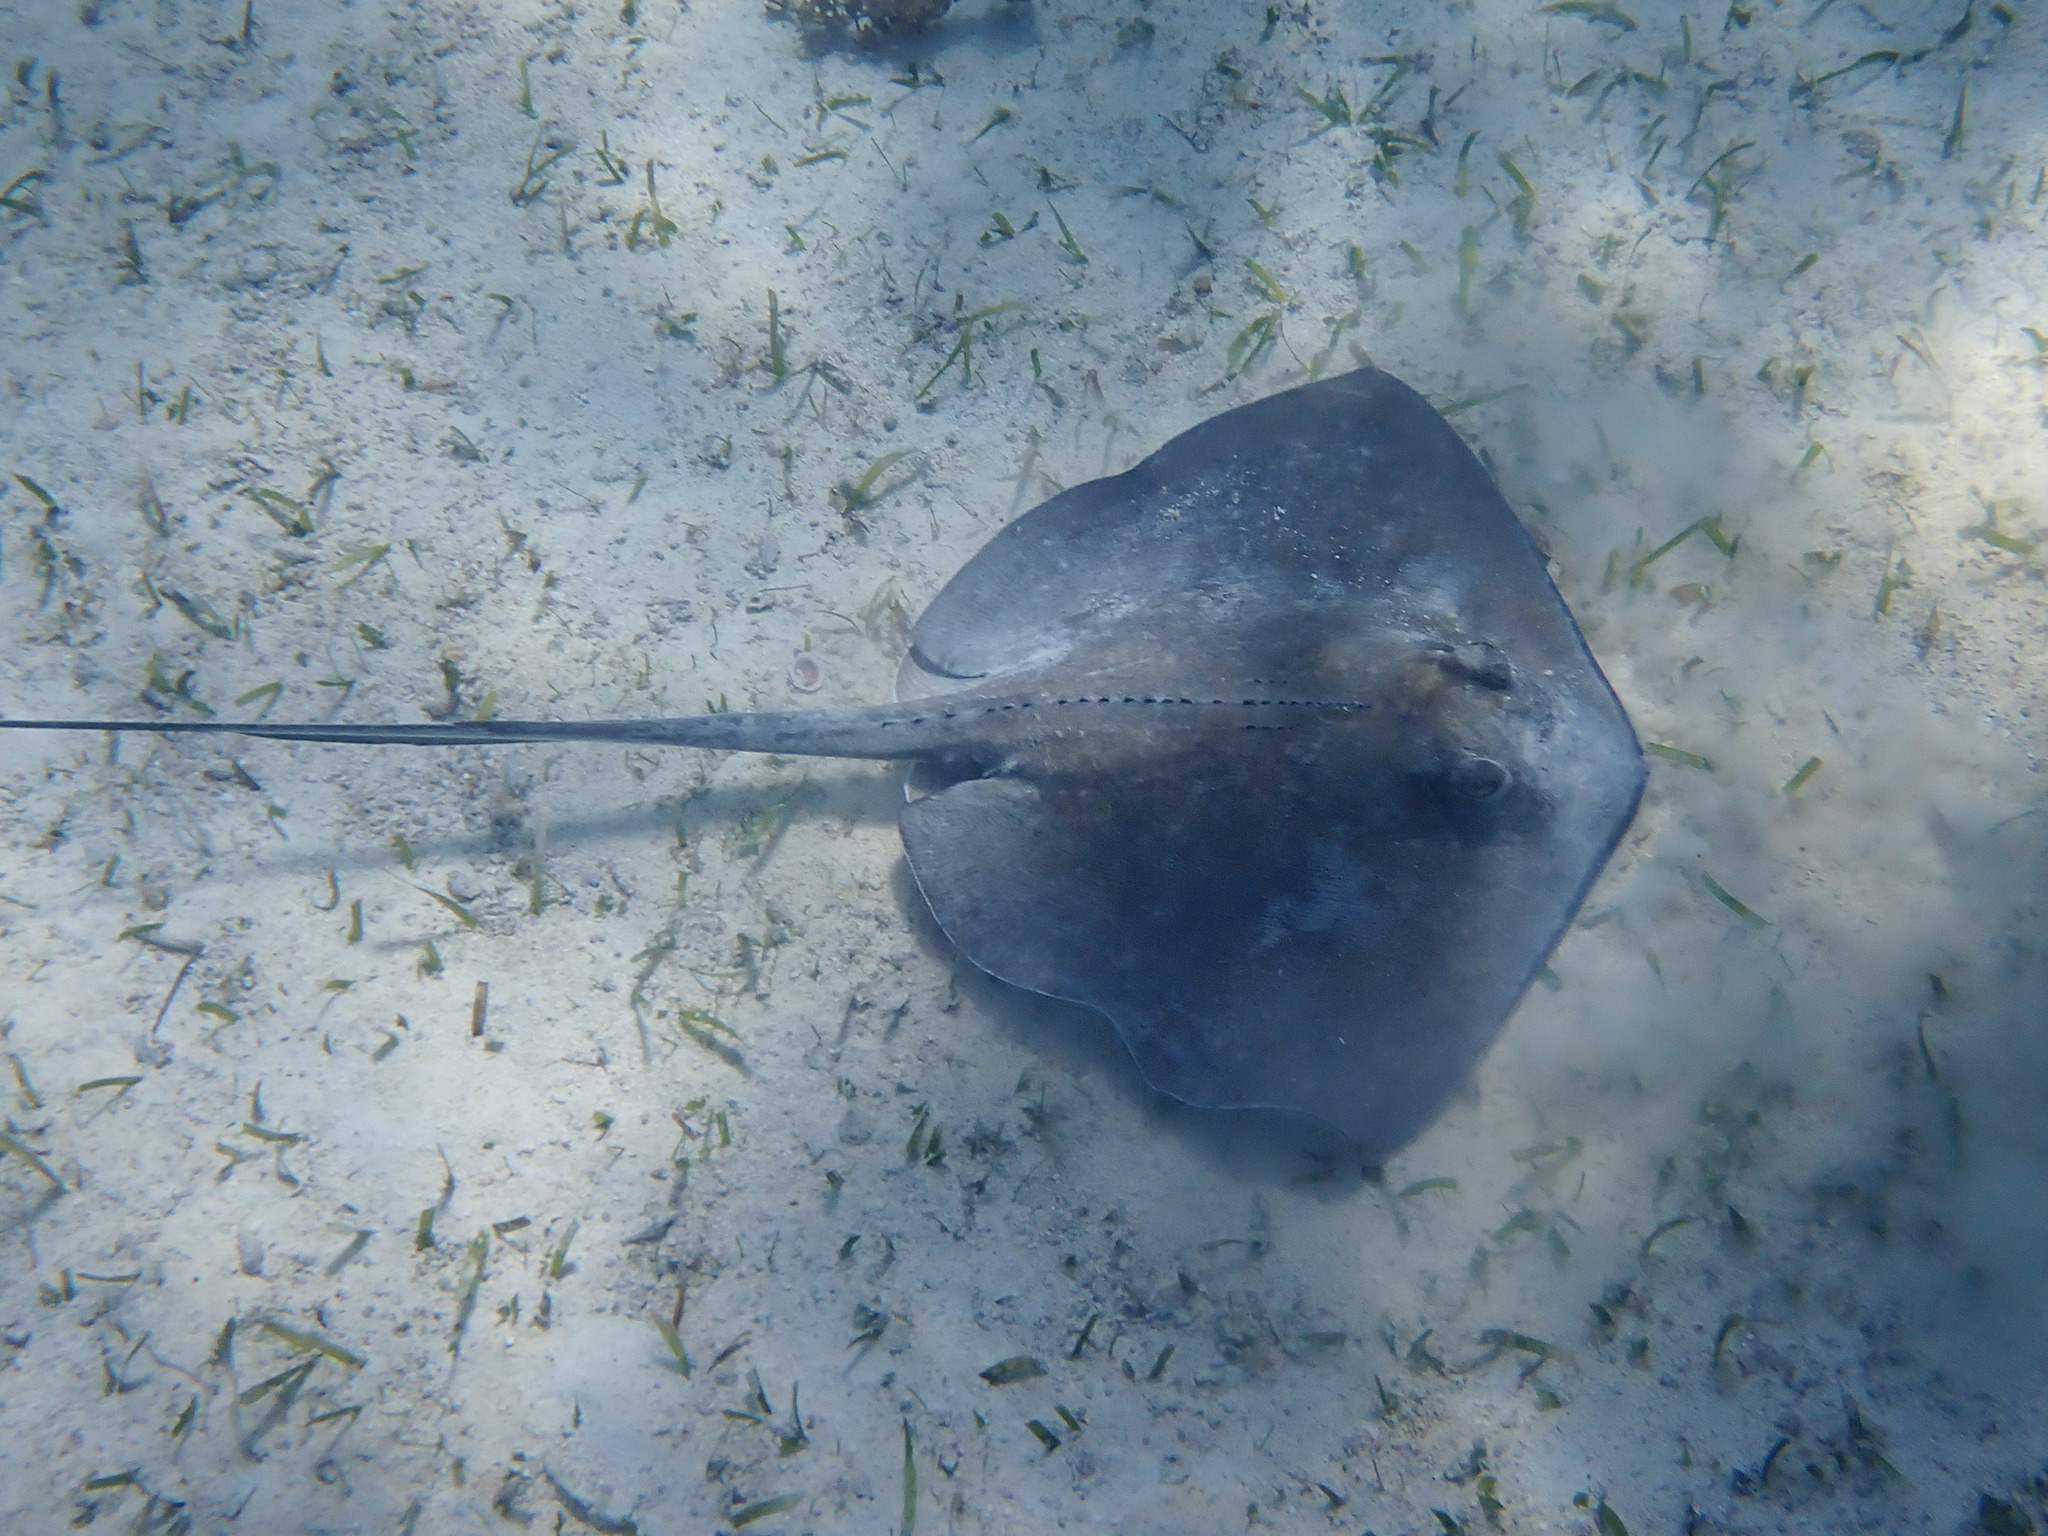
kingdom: Animalia
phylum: Chordata
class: Elasmobranchii
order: Myliobatiformes
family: Dasyatidae
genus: Hypanus
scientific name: Hypanus americanus
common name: Southern stingray
